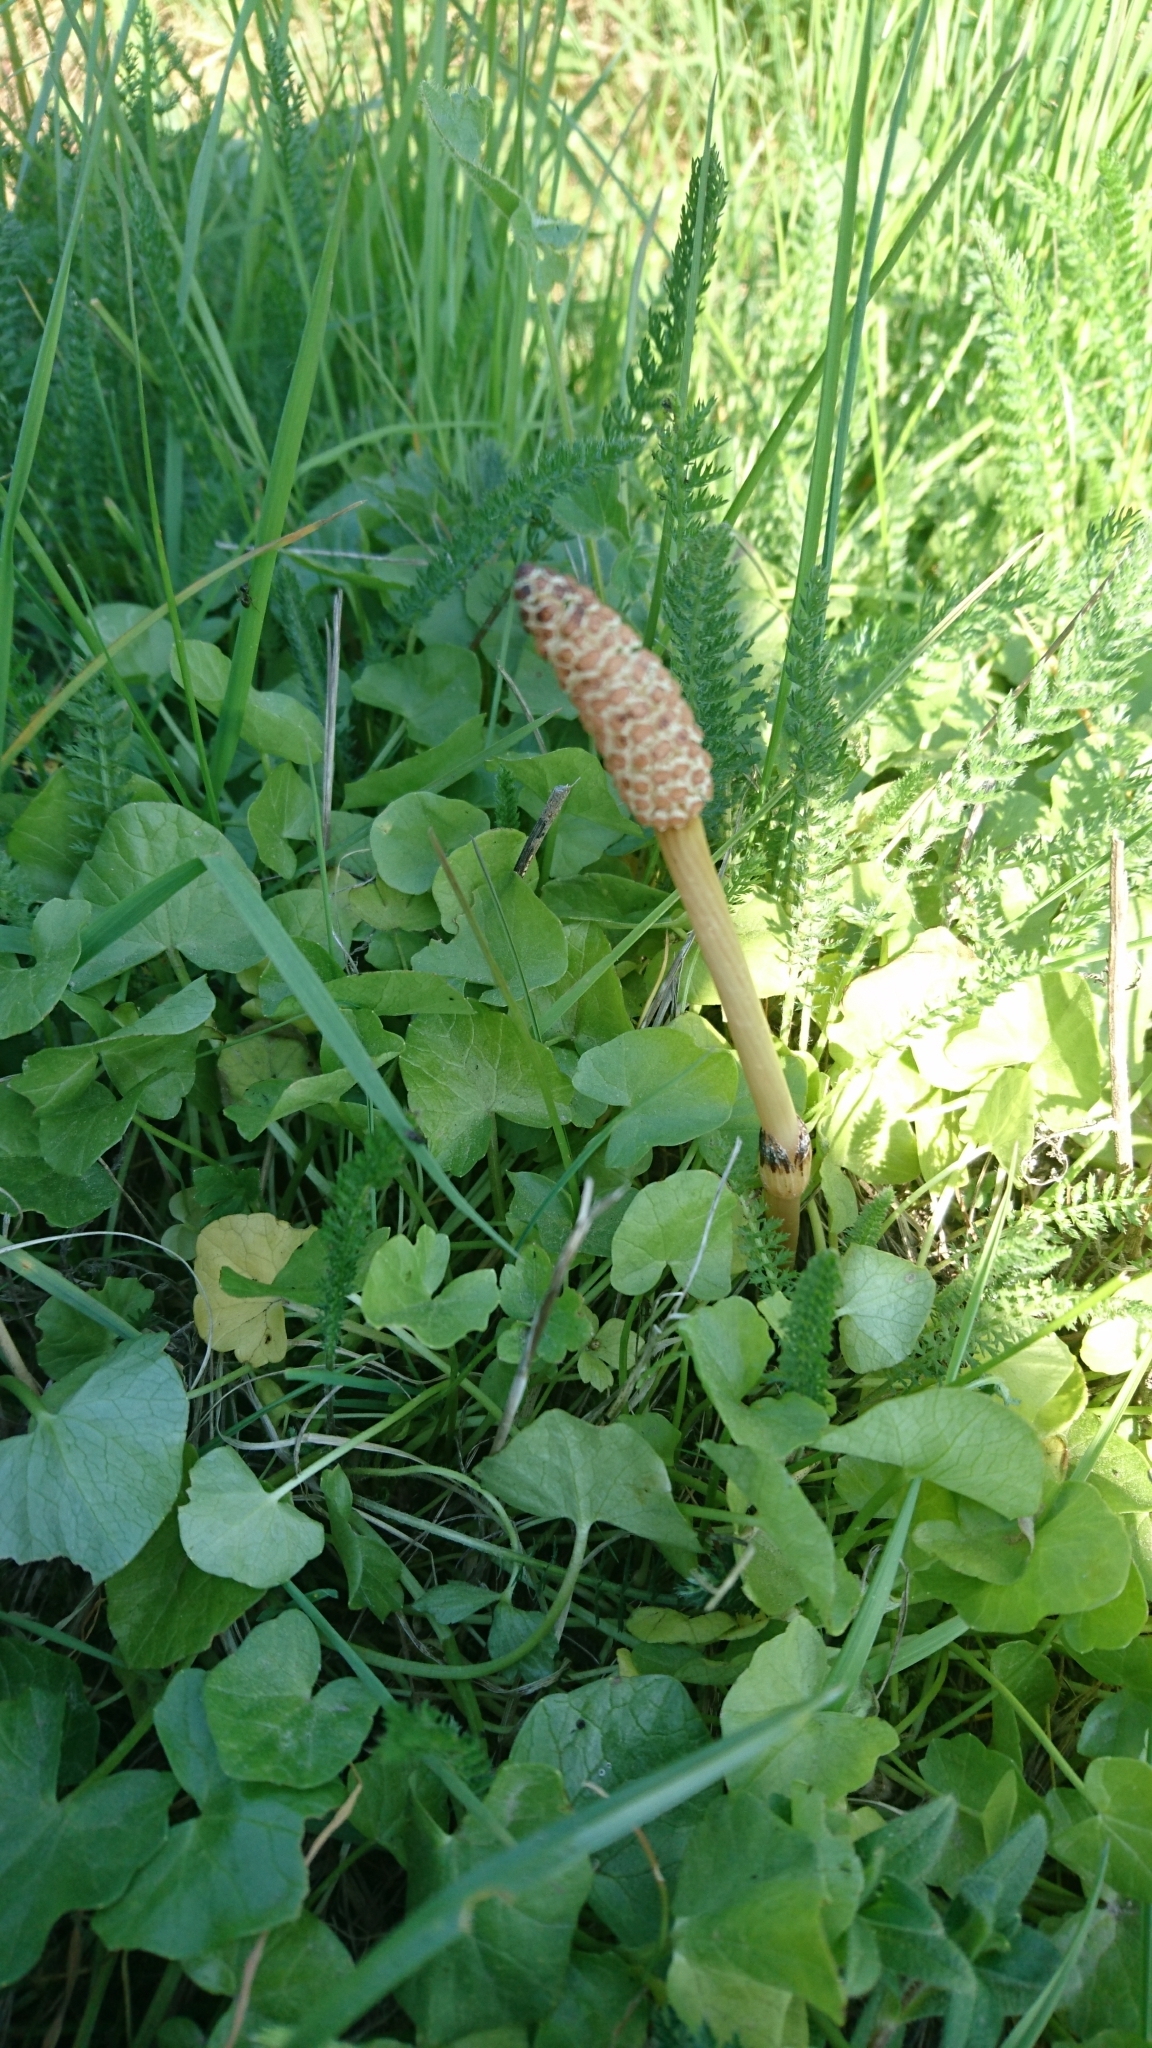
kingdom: Plantae
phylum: Tracheophyta
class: Polypodiopsida
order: Equisetales
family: Equisetaceae
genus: Equisetum
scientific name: Equisetum arvense
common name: Field horsetail
